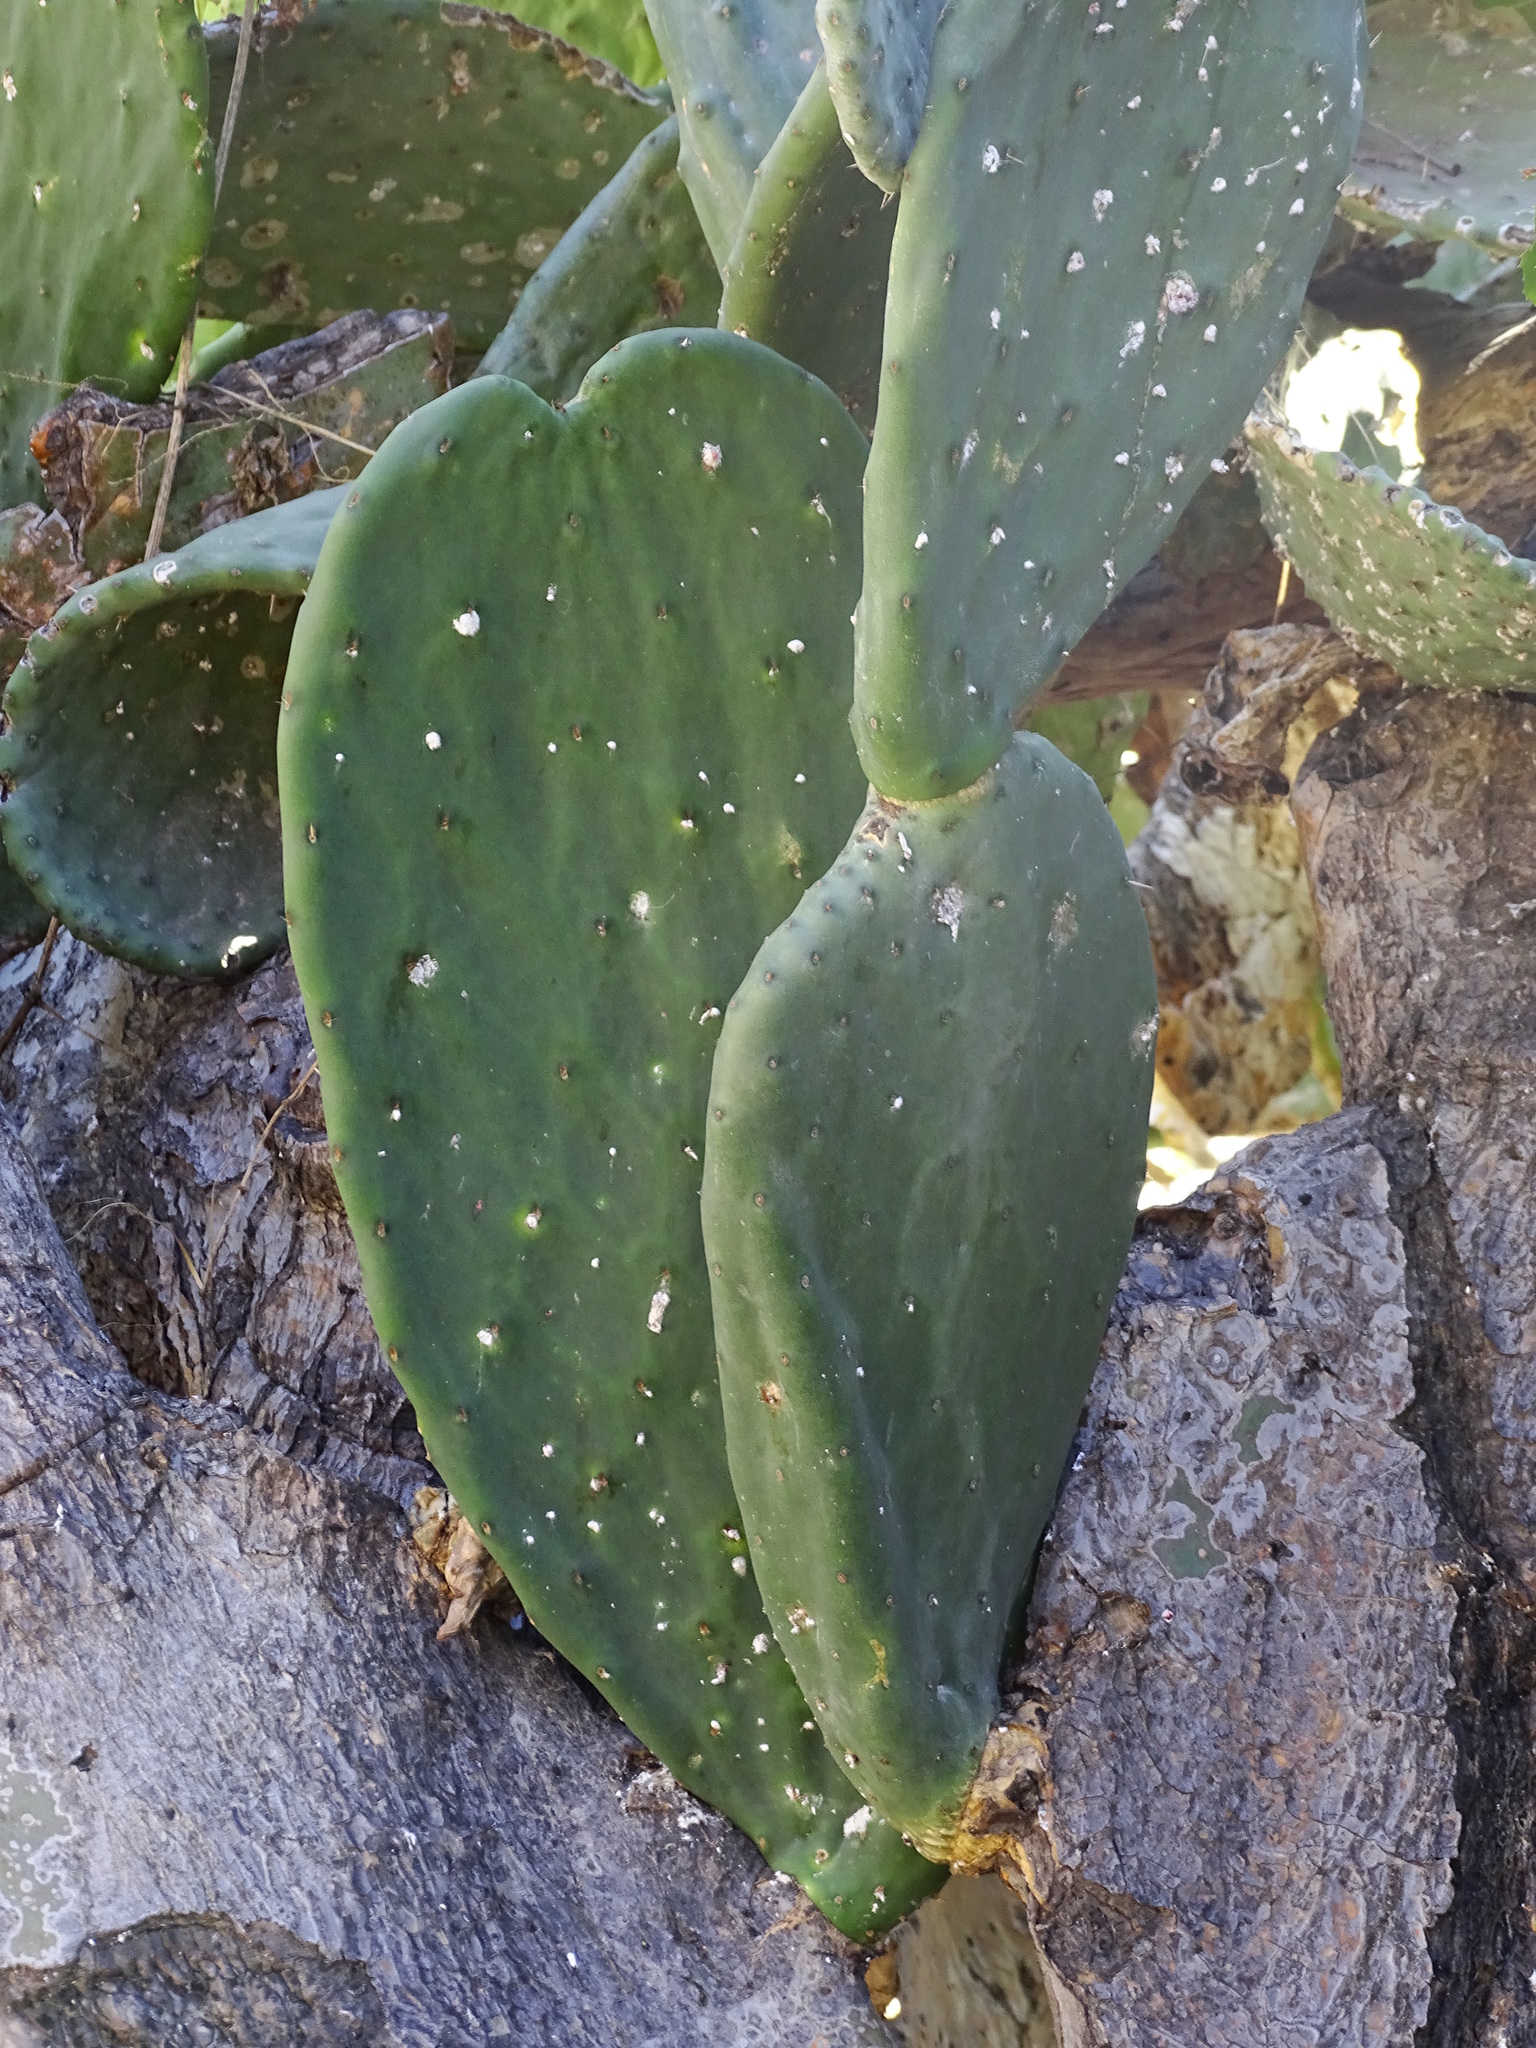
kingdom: Plantae
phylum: Tracheophyta
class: Magnoliopsida
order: Caryophyllales
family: Cactaceae
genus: Opuntia
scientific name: Opuntia ficus-indica
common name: Barbary fig
